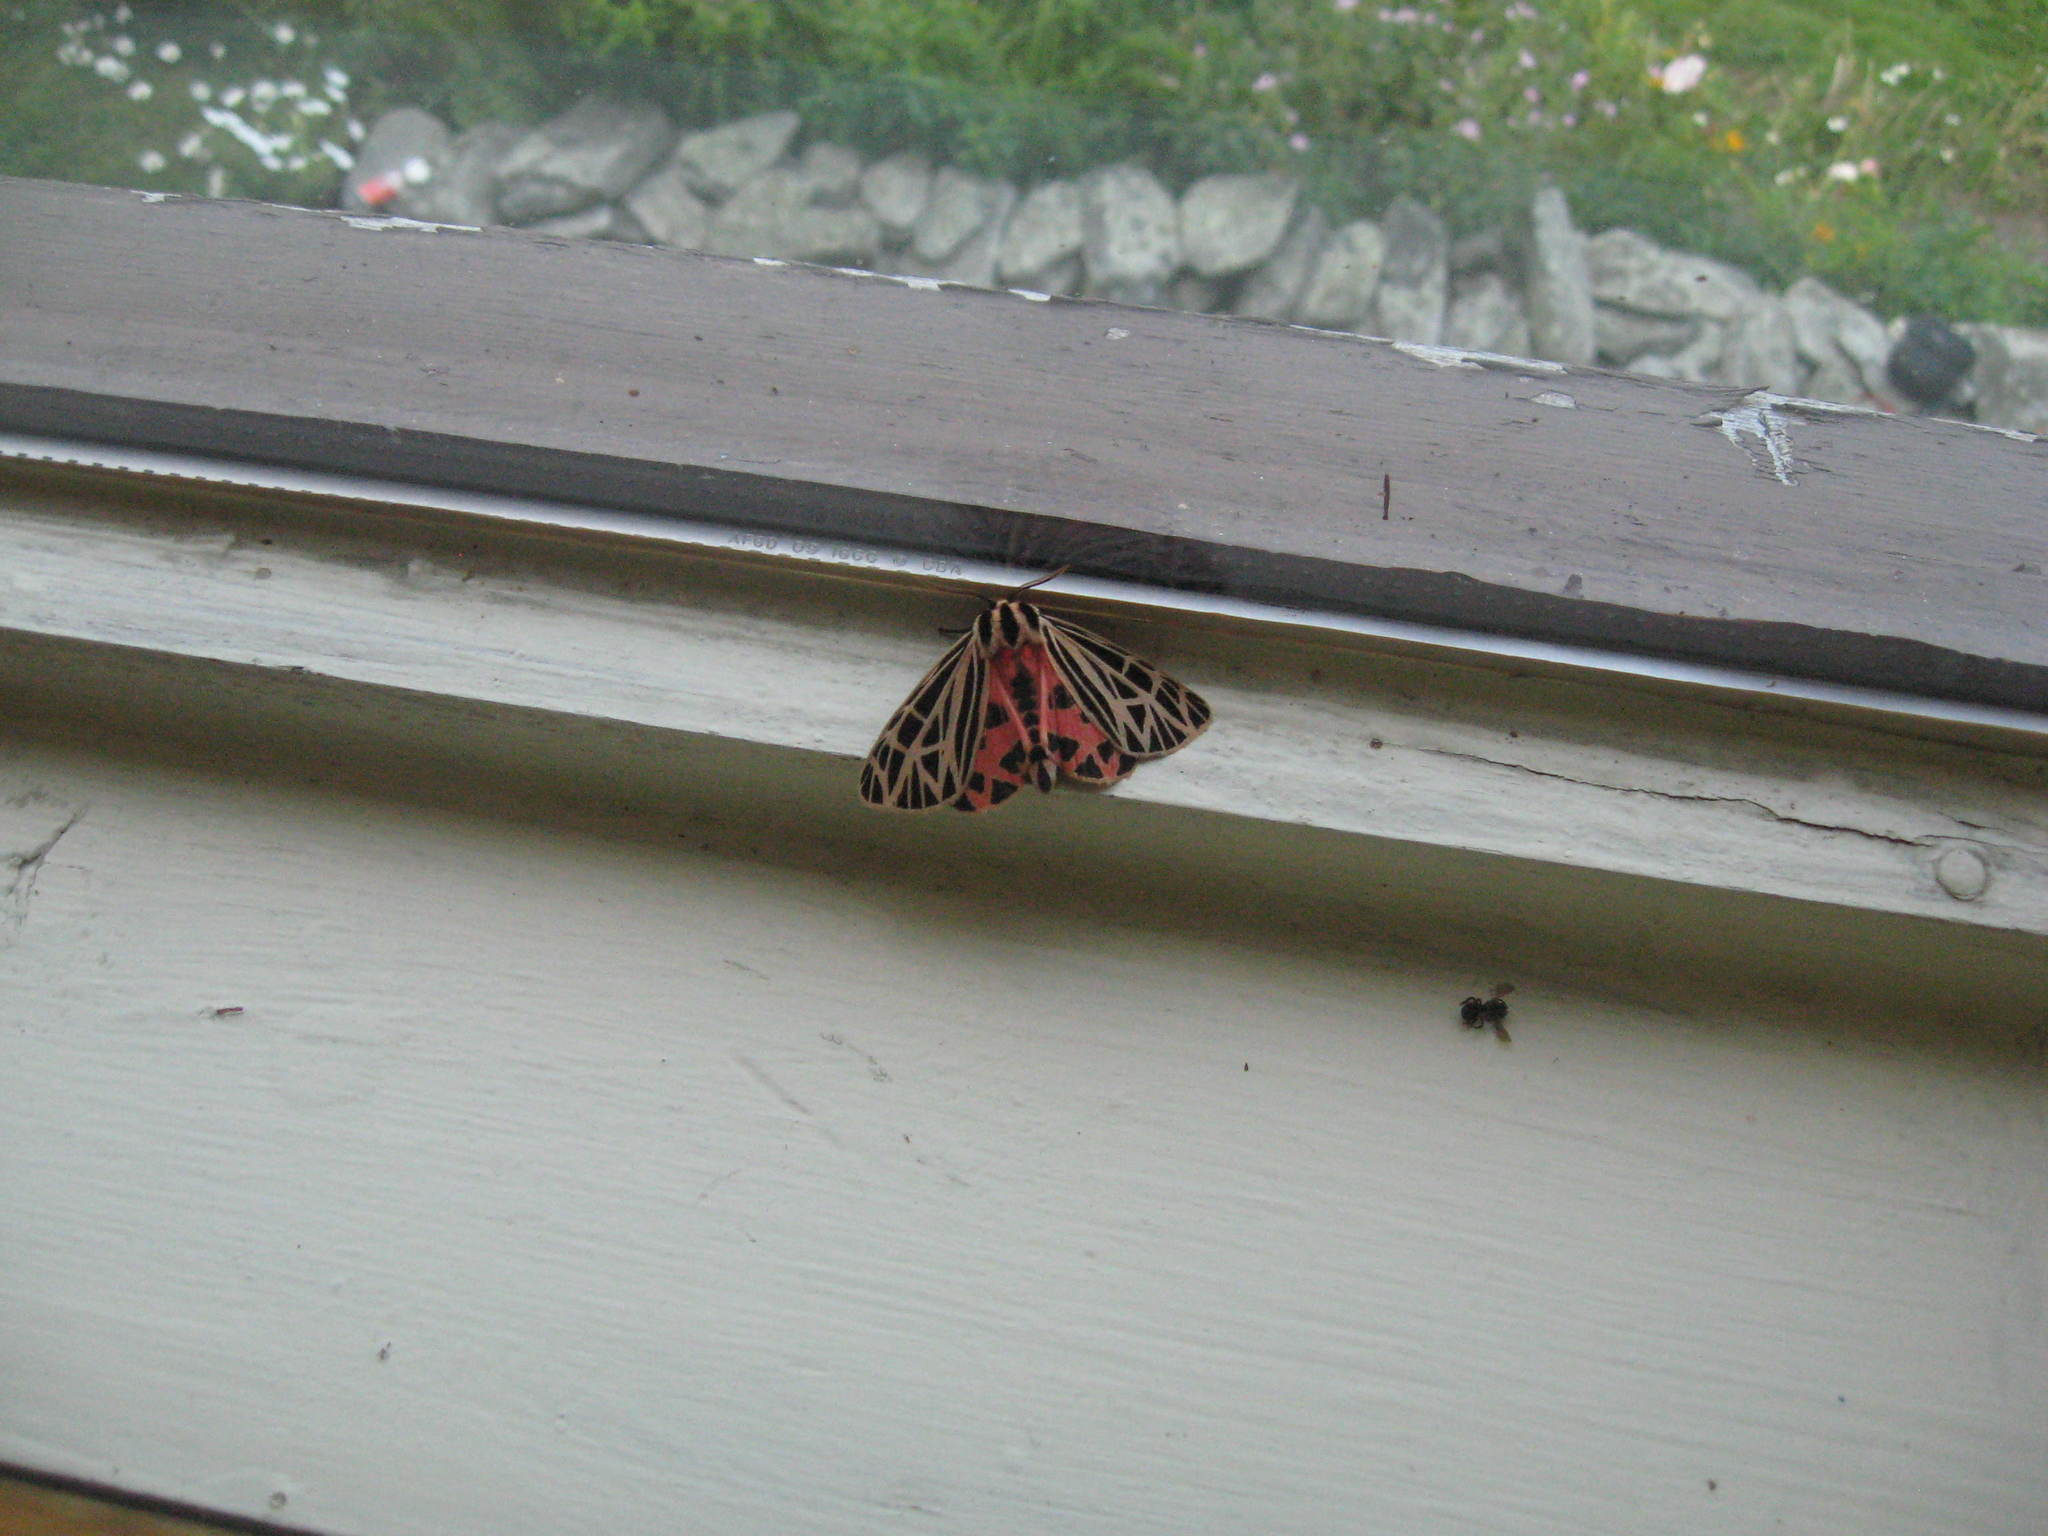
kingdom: Animalia
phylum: Arthropoda
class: Insecta
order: Lepidoptera
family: Erebidae
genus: Grammia
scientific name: Grammia virgo
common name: Virgin tiger moth
